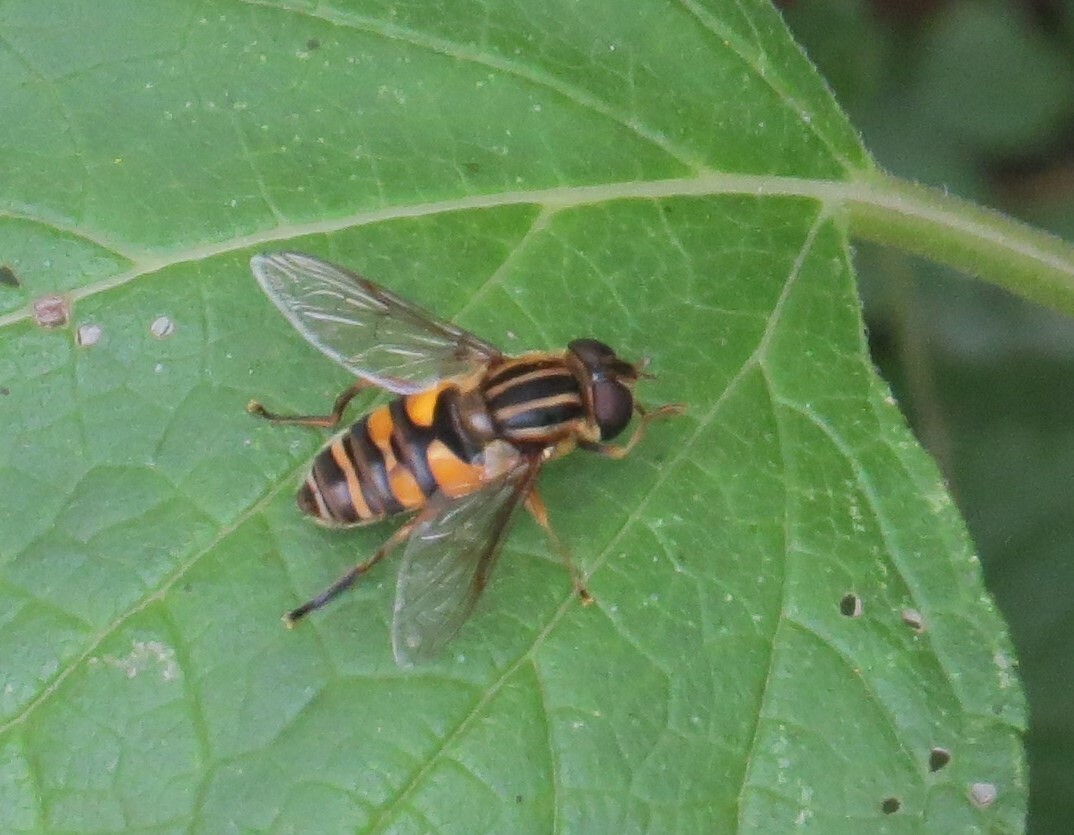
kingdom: Animalia
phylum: Arthropoda
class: Insecta
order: Diptera
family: Syrphidae
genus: Helophilus
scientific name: Helophilus fasciatus
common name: Narrow-headed marsh fly
